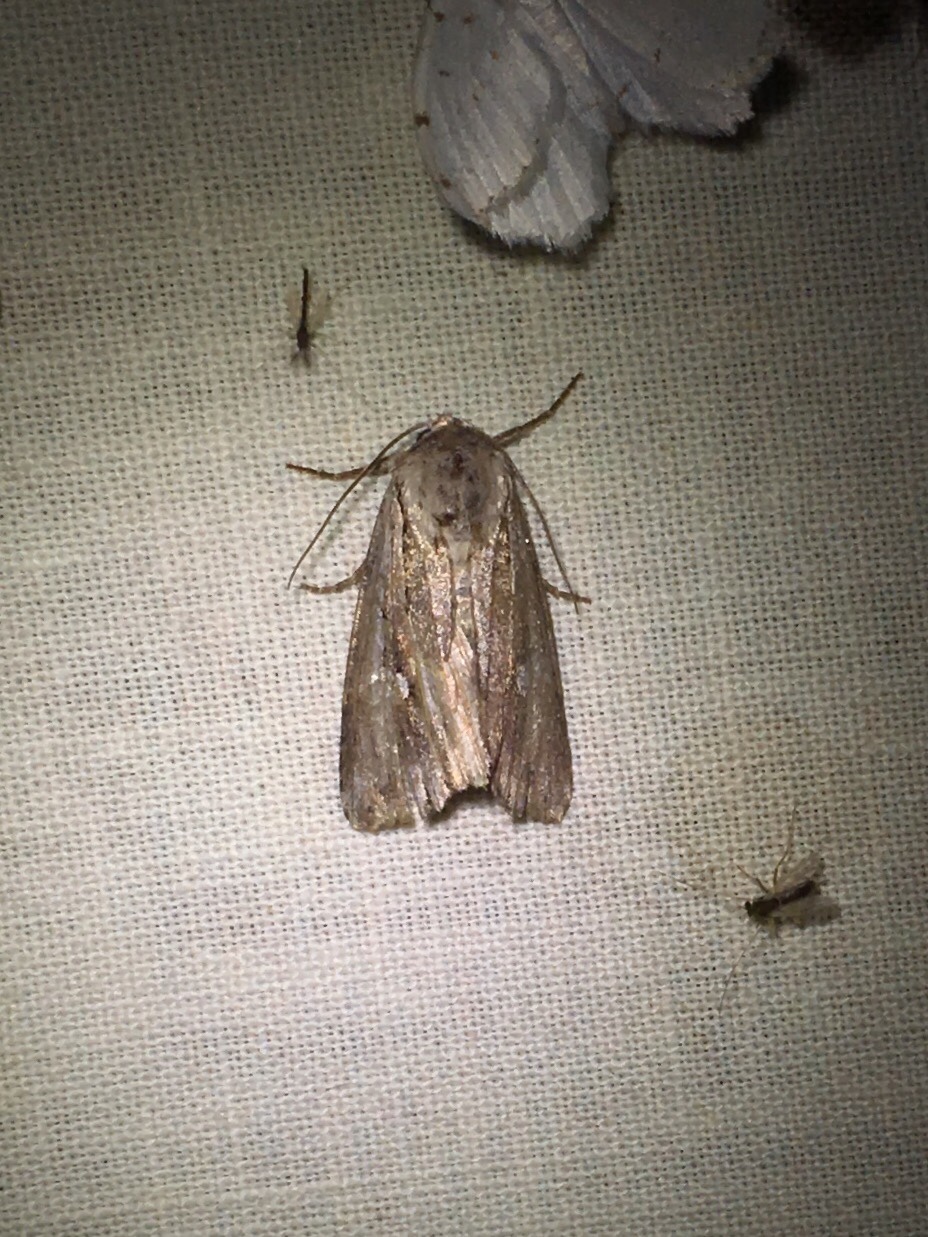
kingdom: Animalia
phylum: Arthropoda
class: Insecta
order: Lepidoptera
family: Noctuidae
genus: Nedra
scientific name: Nedra ramosula
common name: Gray half-spot
